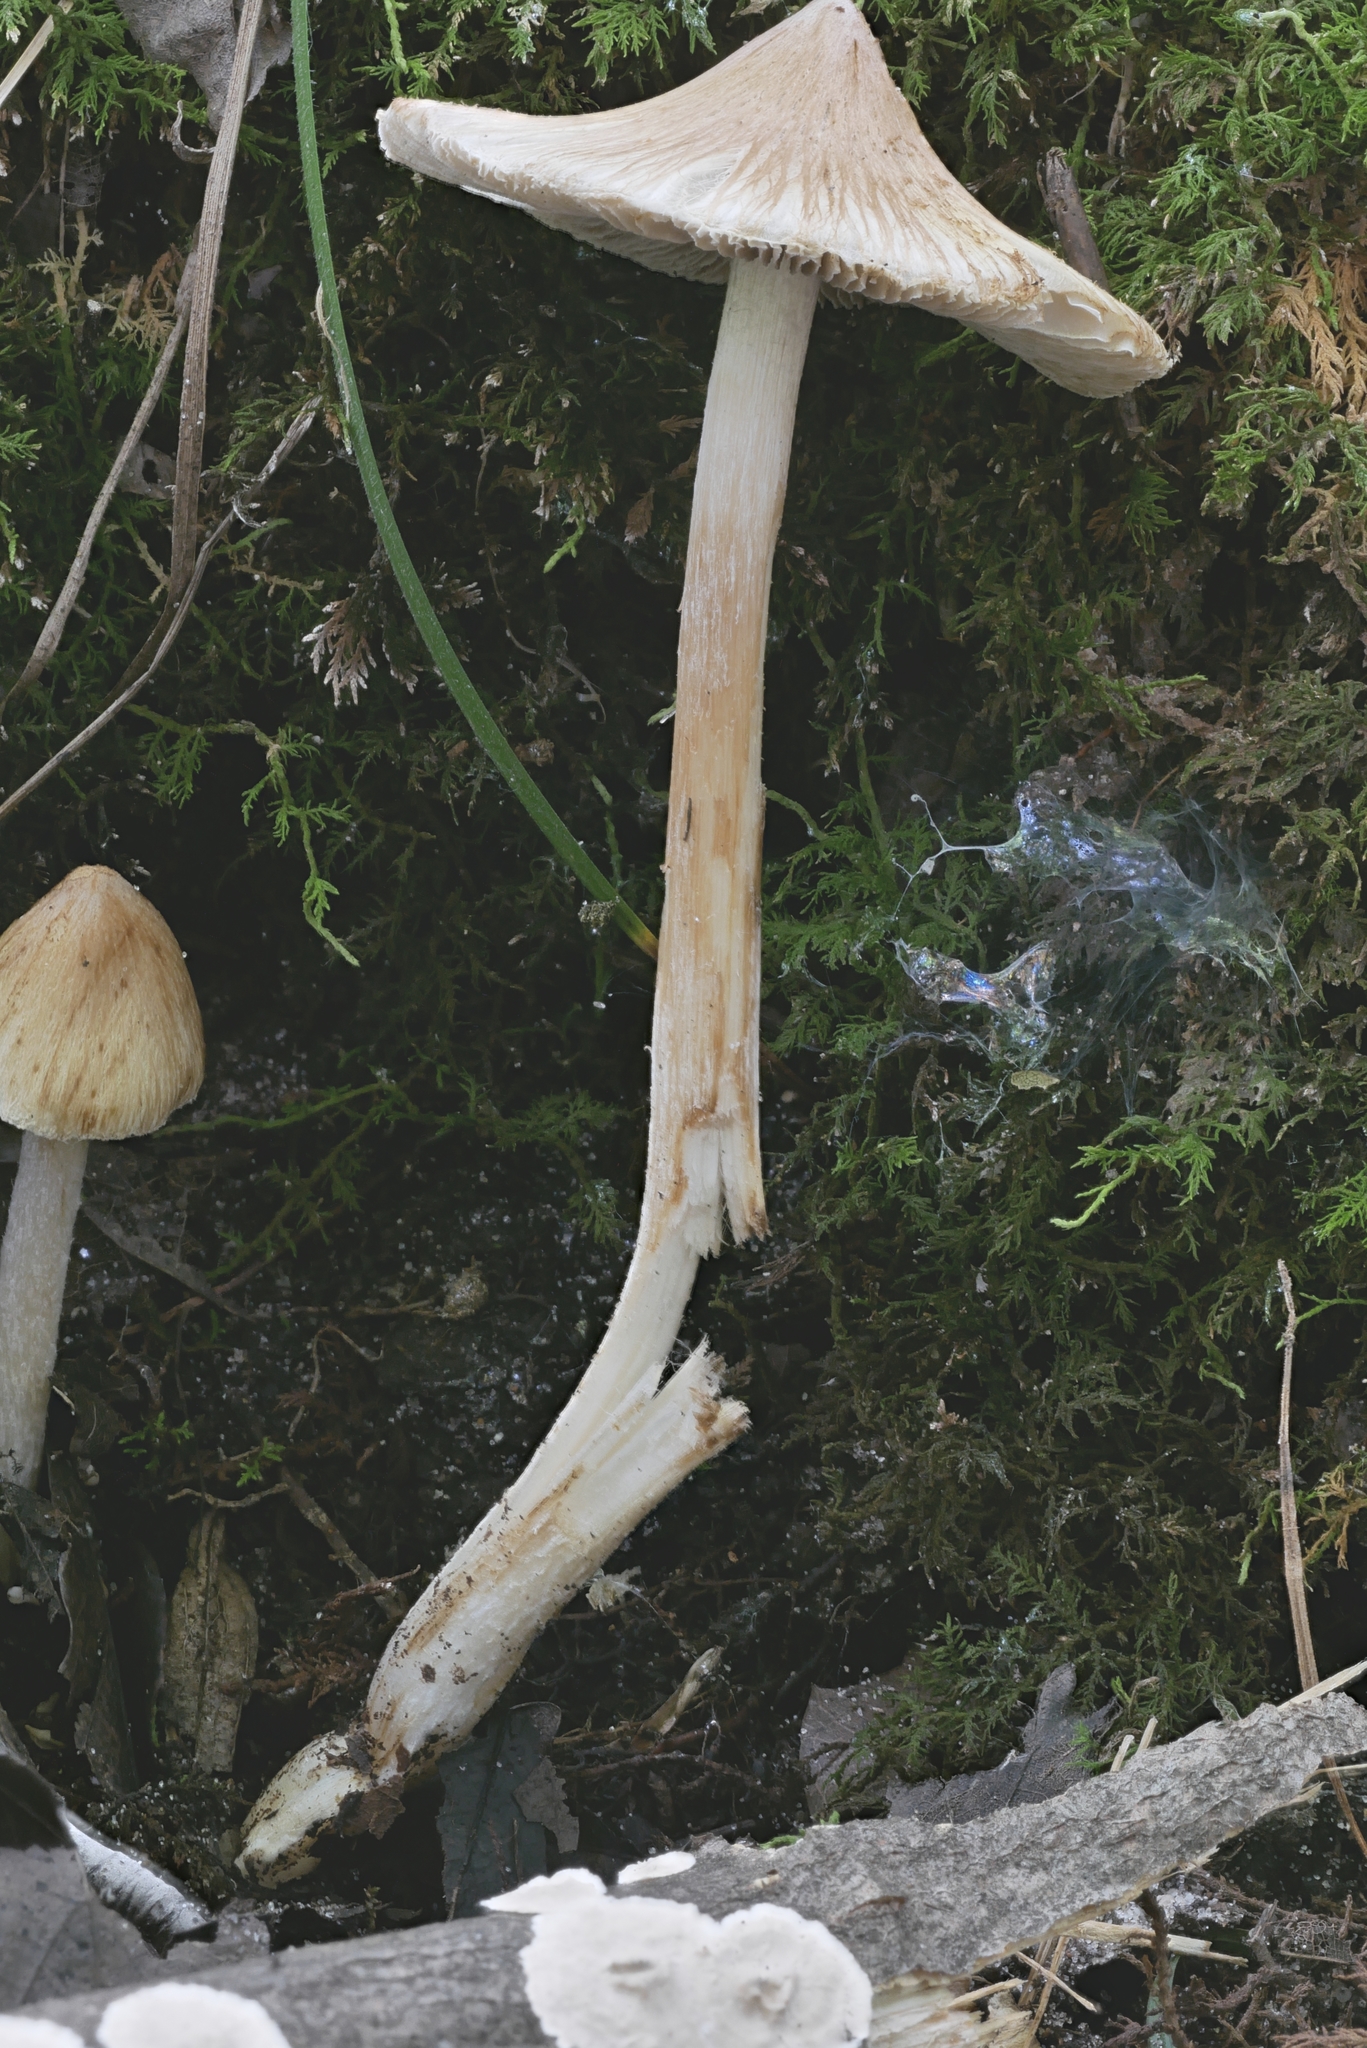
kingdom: Fungi
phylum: Basidiomycota
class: Agaricomycetes
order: Agaricales
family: Inocybaceae
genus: Pseudosperma
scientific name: Pseudosperma rimosum
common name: Split fibrecap
